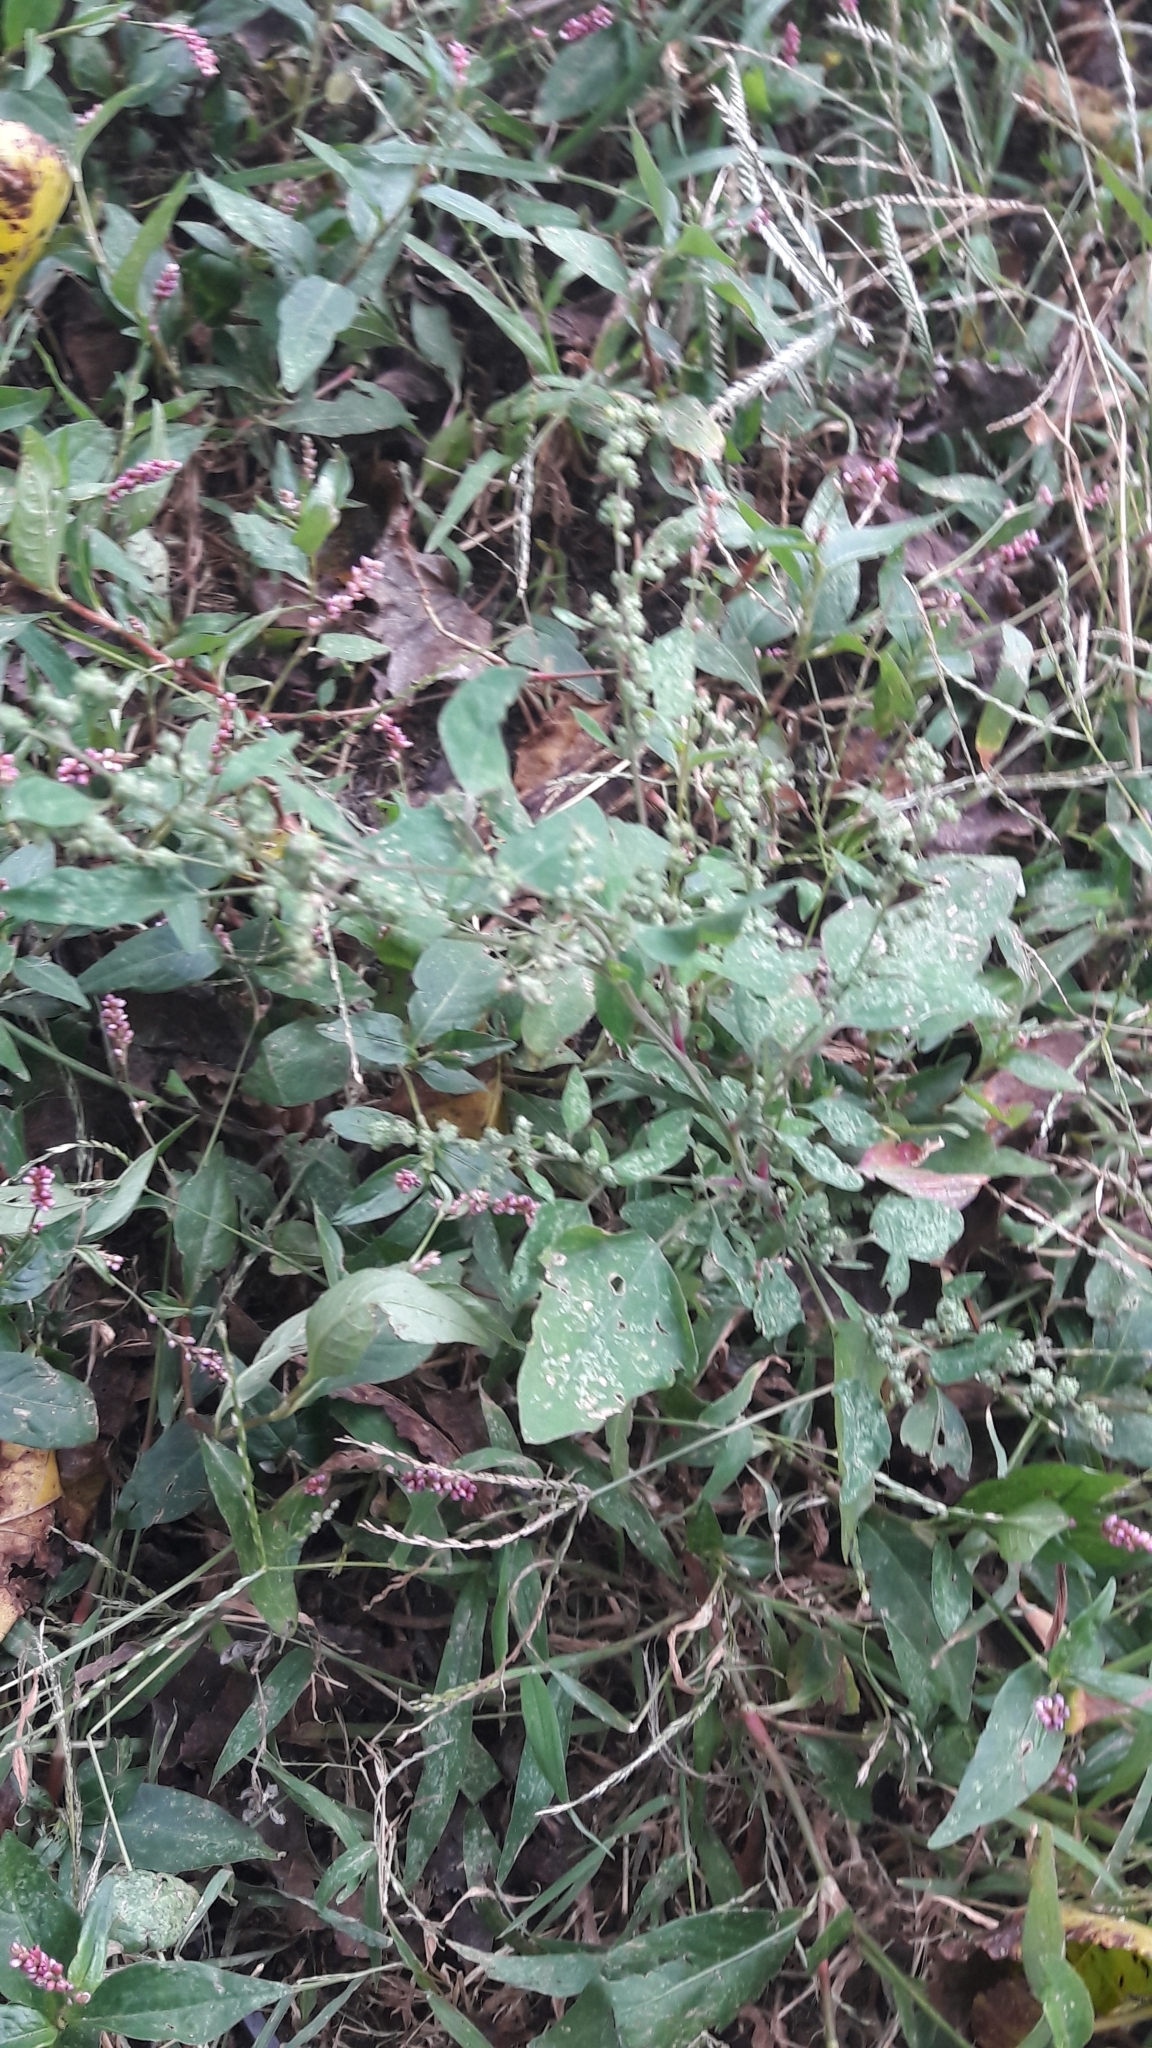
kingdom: Plantae
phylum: Tracheophyta
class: Magnoliopsida
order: Caryophyllales
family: Amaranthaceae
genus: Chenopodium
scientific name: Chenopodium album
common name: Fat-hen
